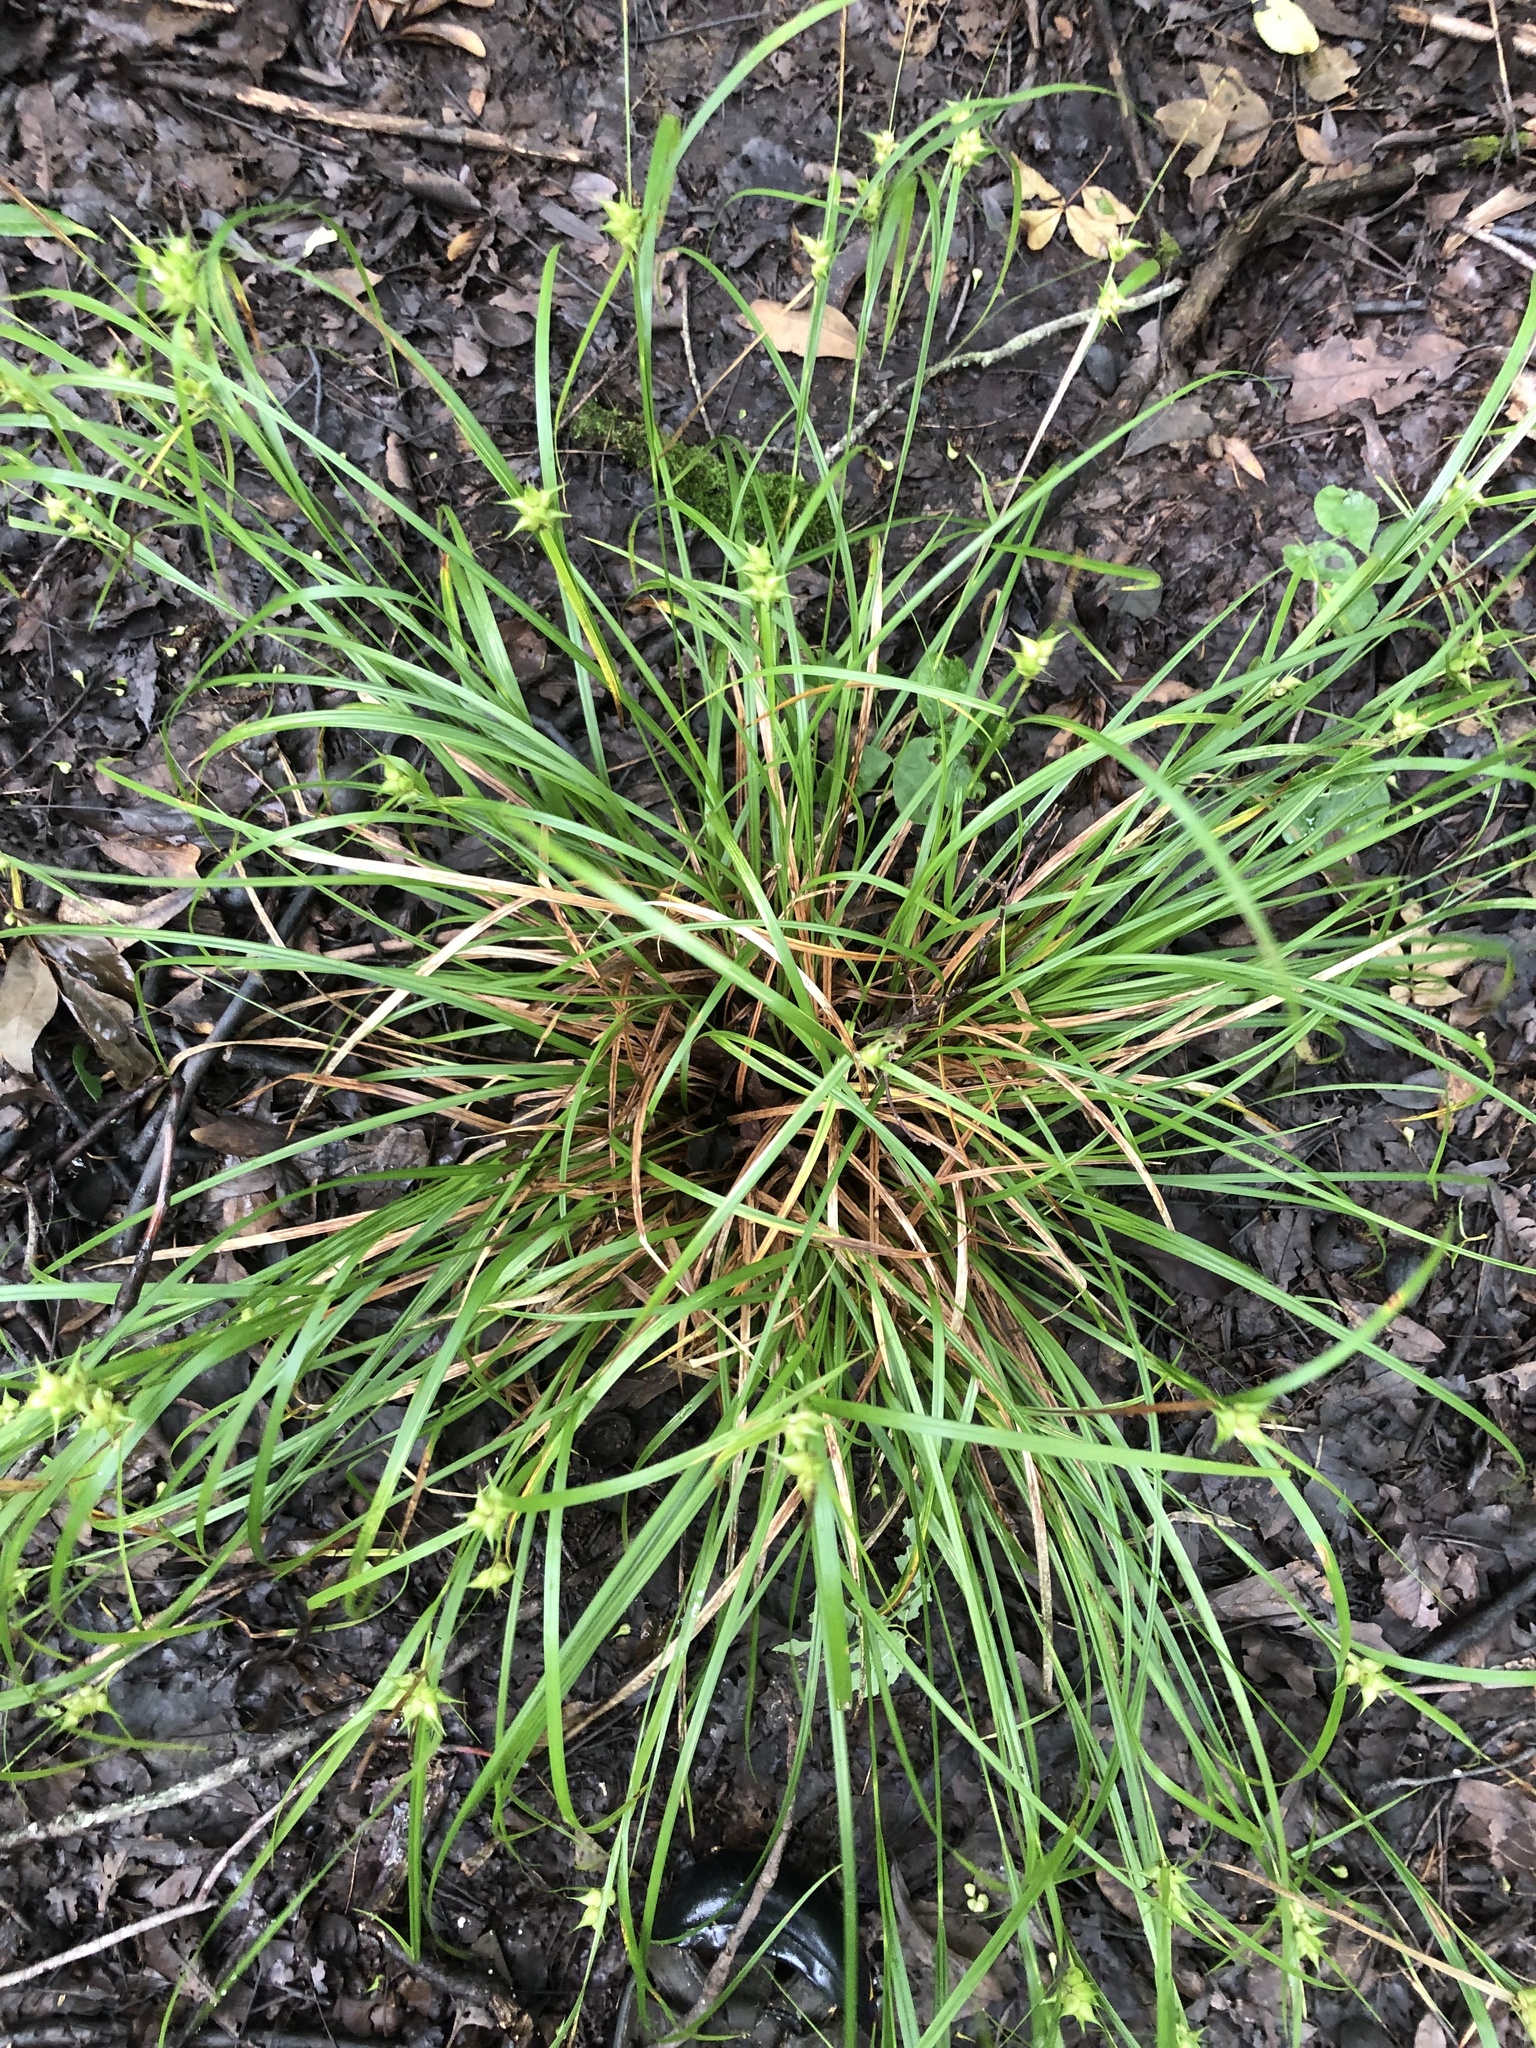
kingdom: Plantae
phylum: Tracheophyta
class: Liliopsida
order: Poales
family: Cyperaceae
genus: Carex
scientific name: Carex intumescens
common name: Greater bladder sedge
